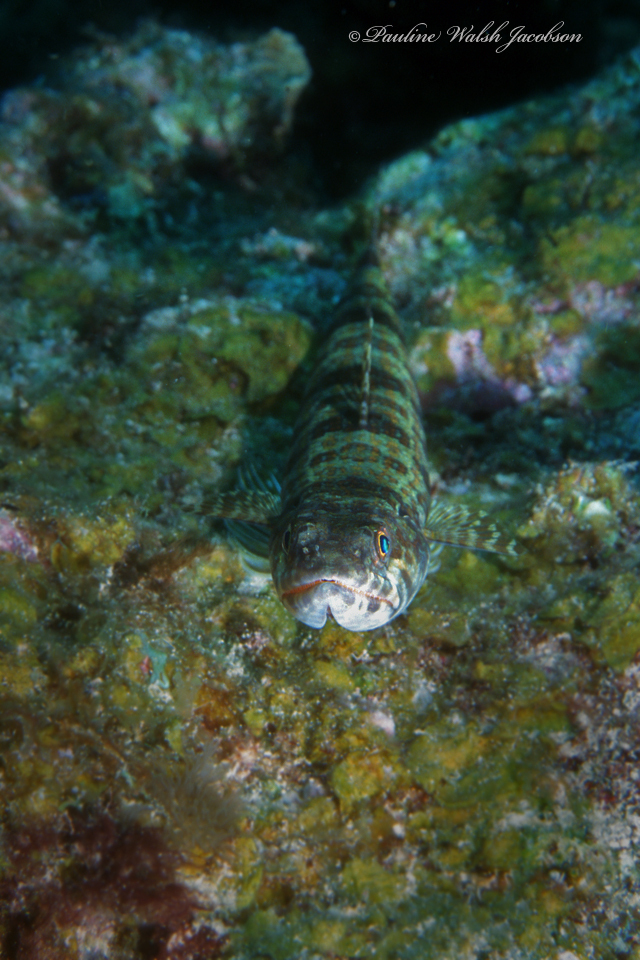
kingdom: Animalia
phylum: Chordata
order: Aulopiformes
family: Synodontidae
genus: Synodus
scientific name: Synodus intermedius
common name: Sand diver
